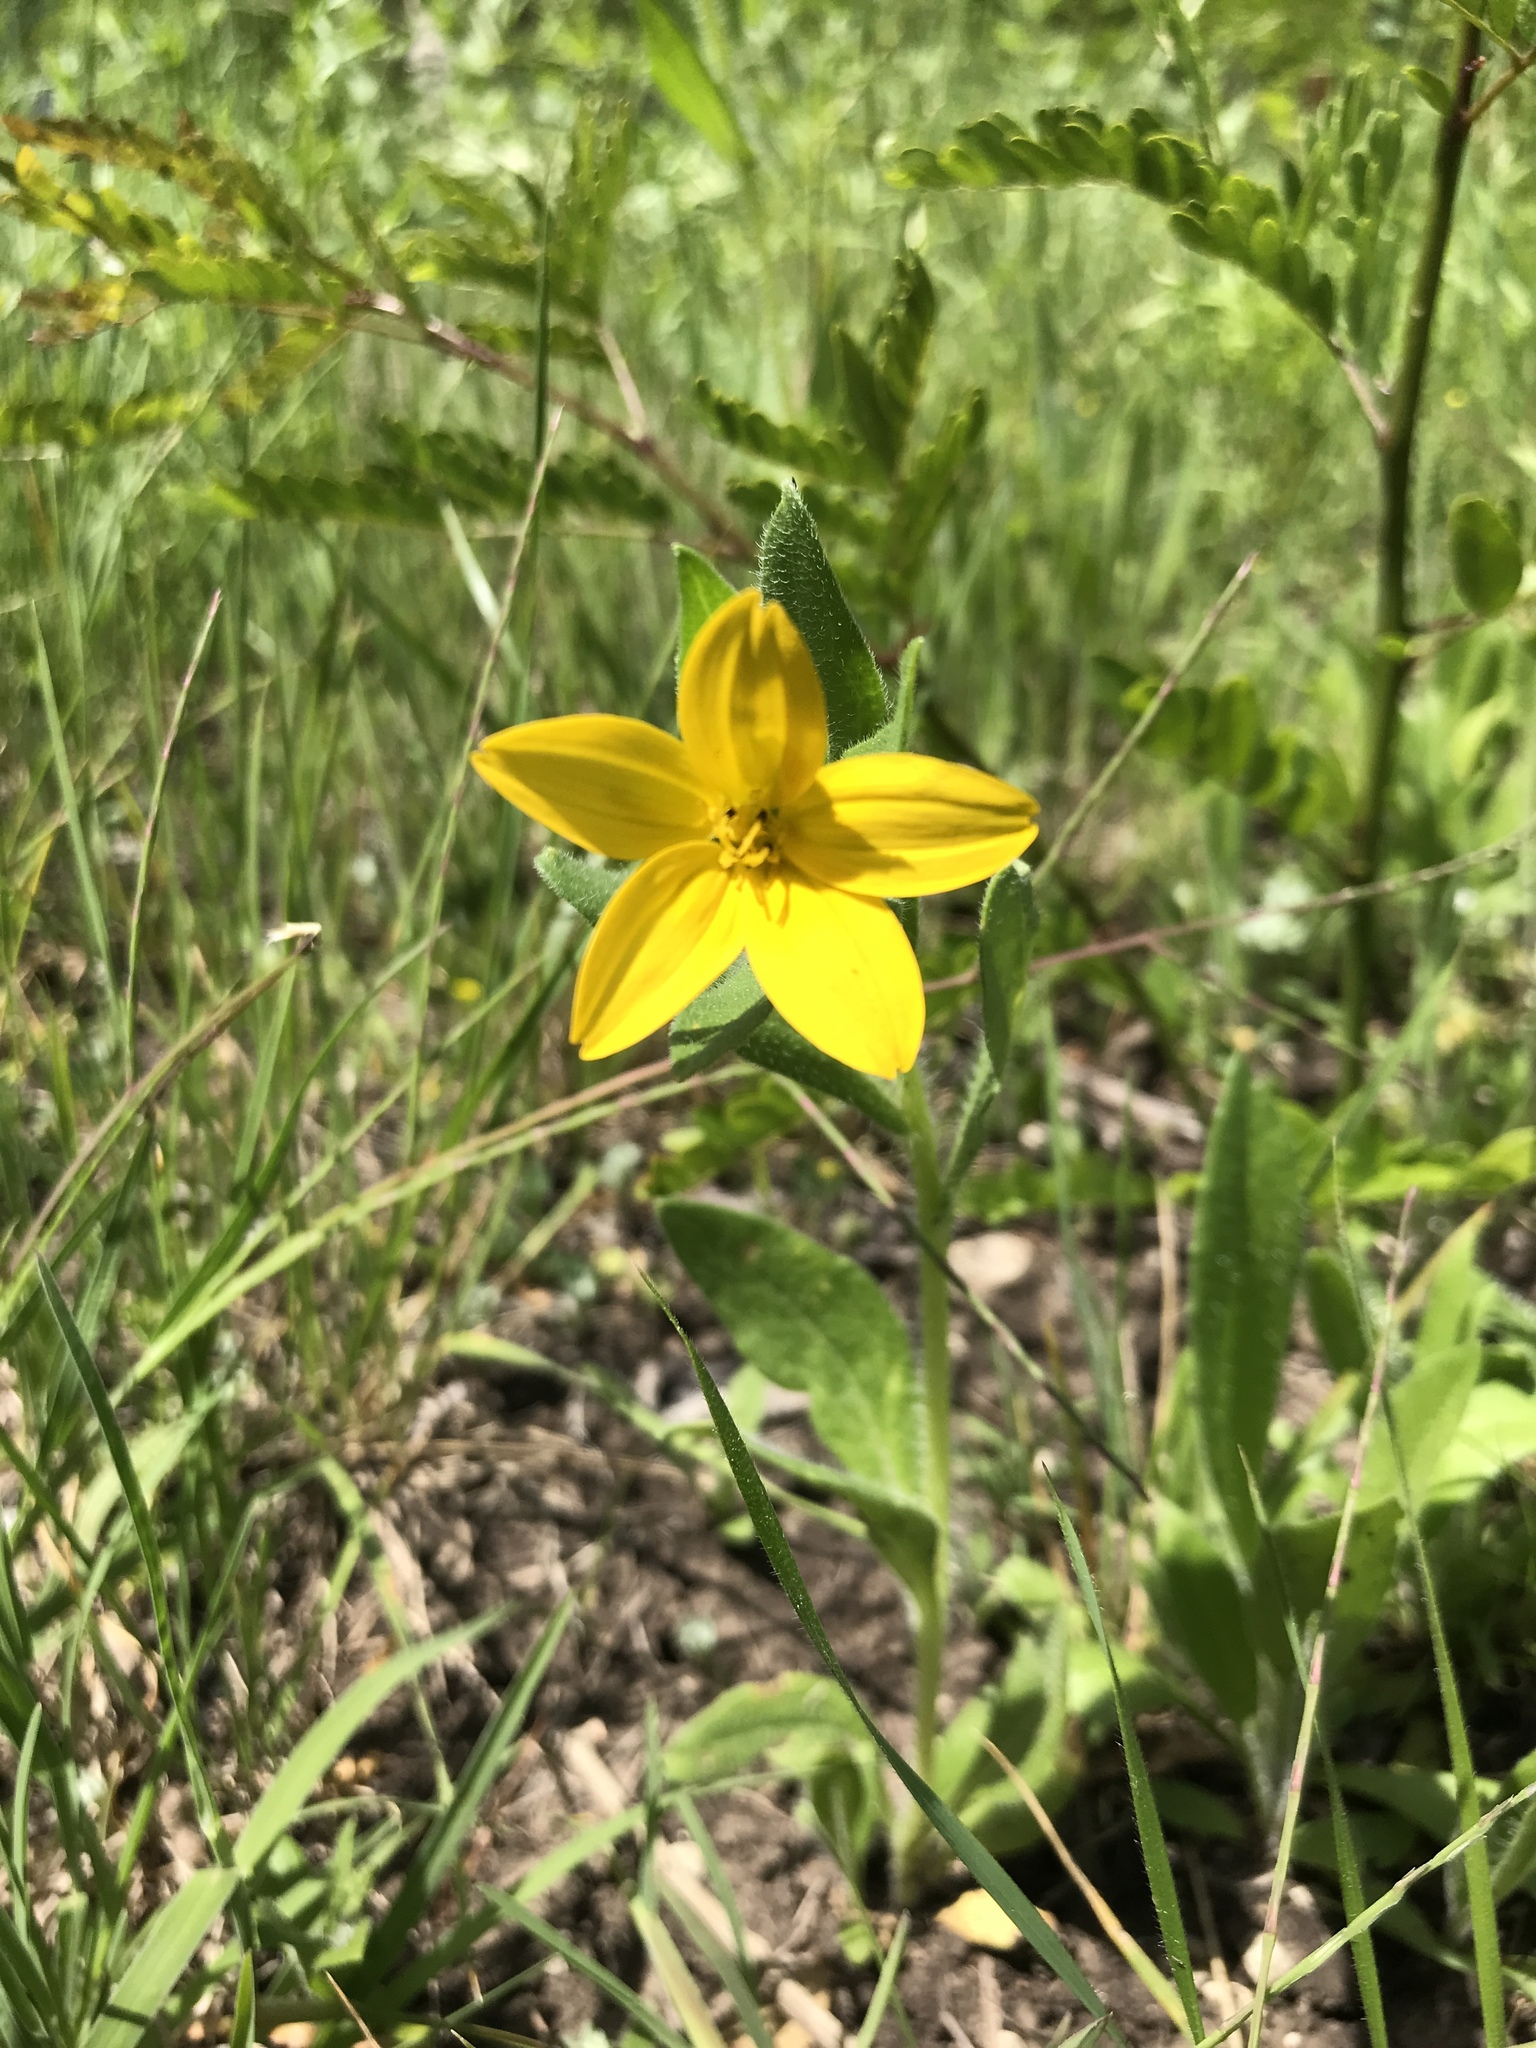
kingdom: Plantae
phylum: Tracheophyta
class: Magnoliopsida
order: Asterales
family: Asteraceae
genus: Lindheimera
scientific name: Lindheimera texana
